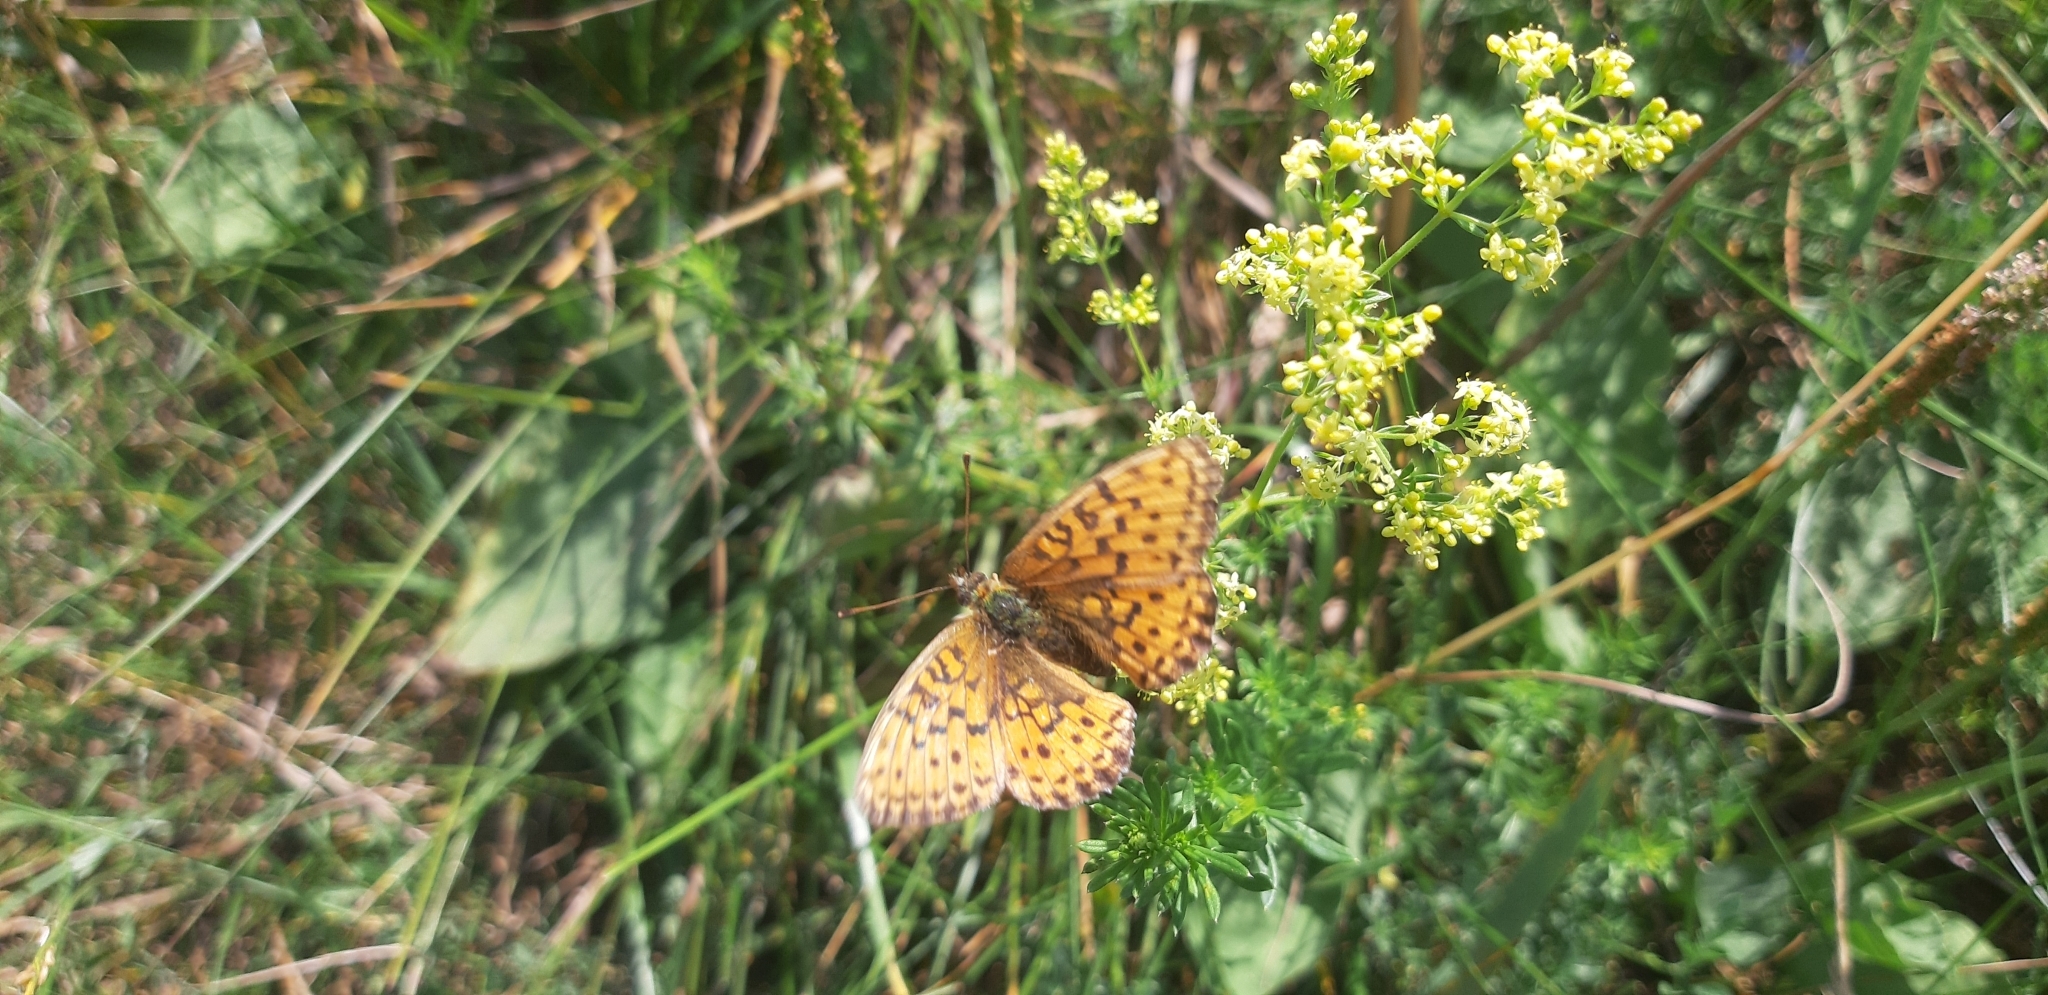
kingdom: Animalia
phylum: Arthropoda
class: Insecta
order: Lepidoptera
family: Nymphalidae
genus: Brenthis
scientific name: Brenthis ino
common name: Lesser marbled fritillary
